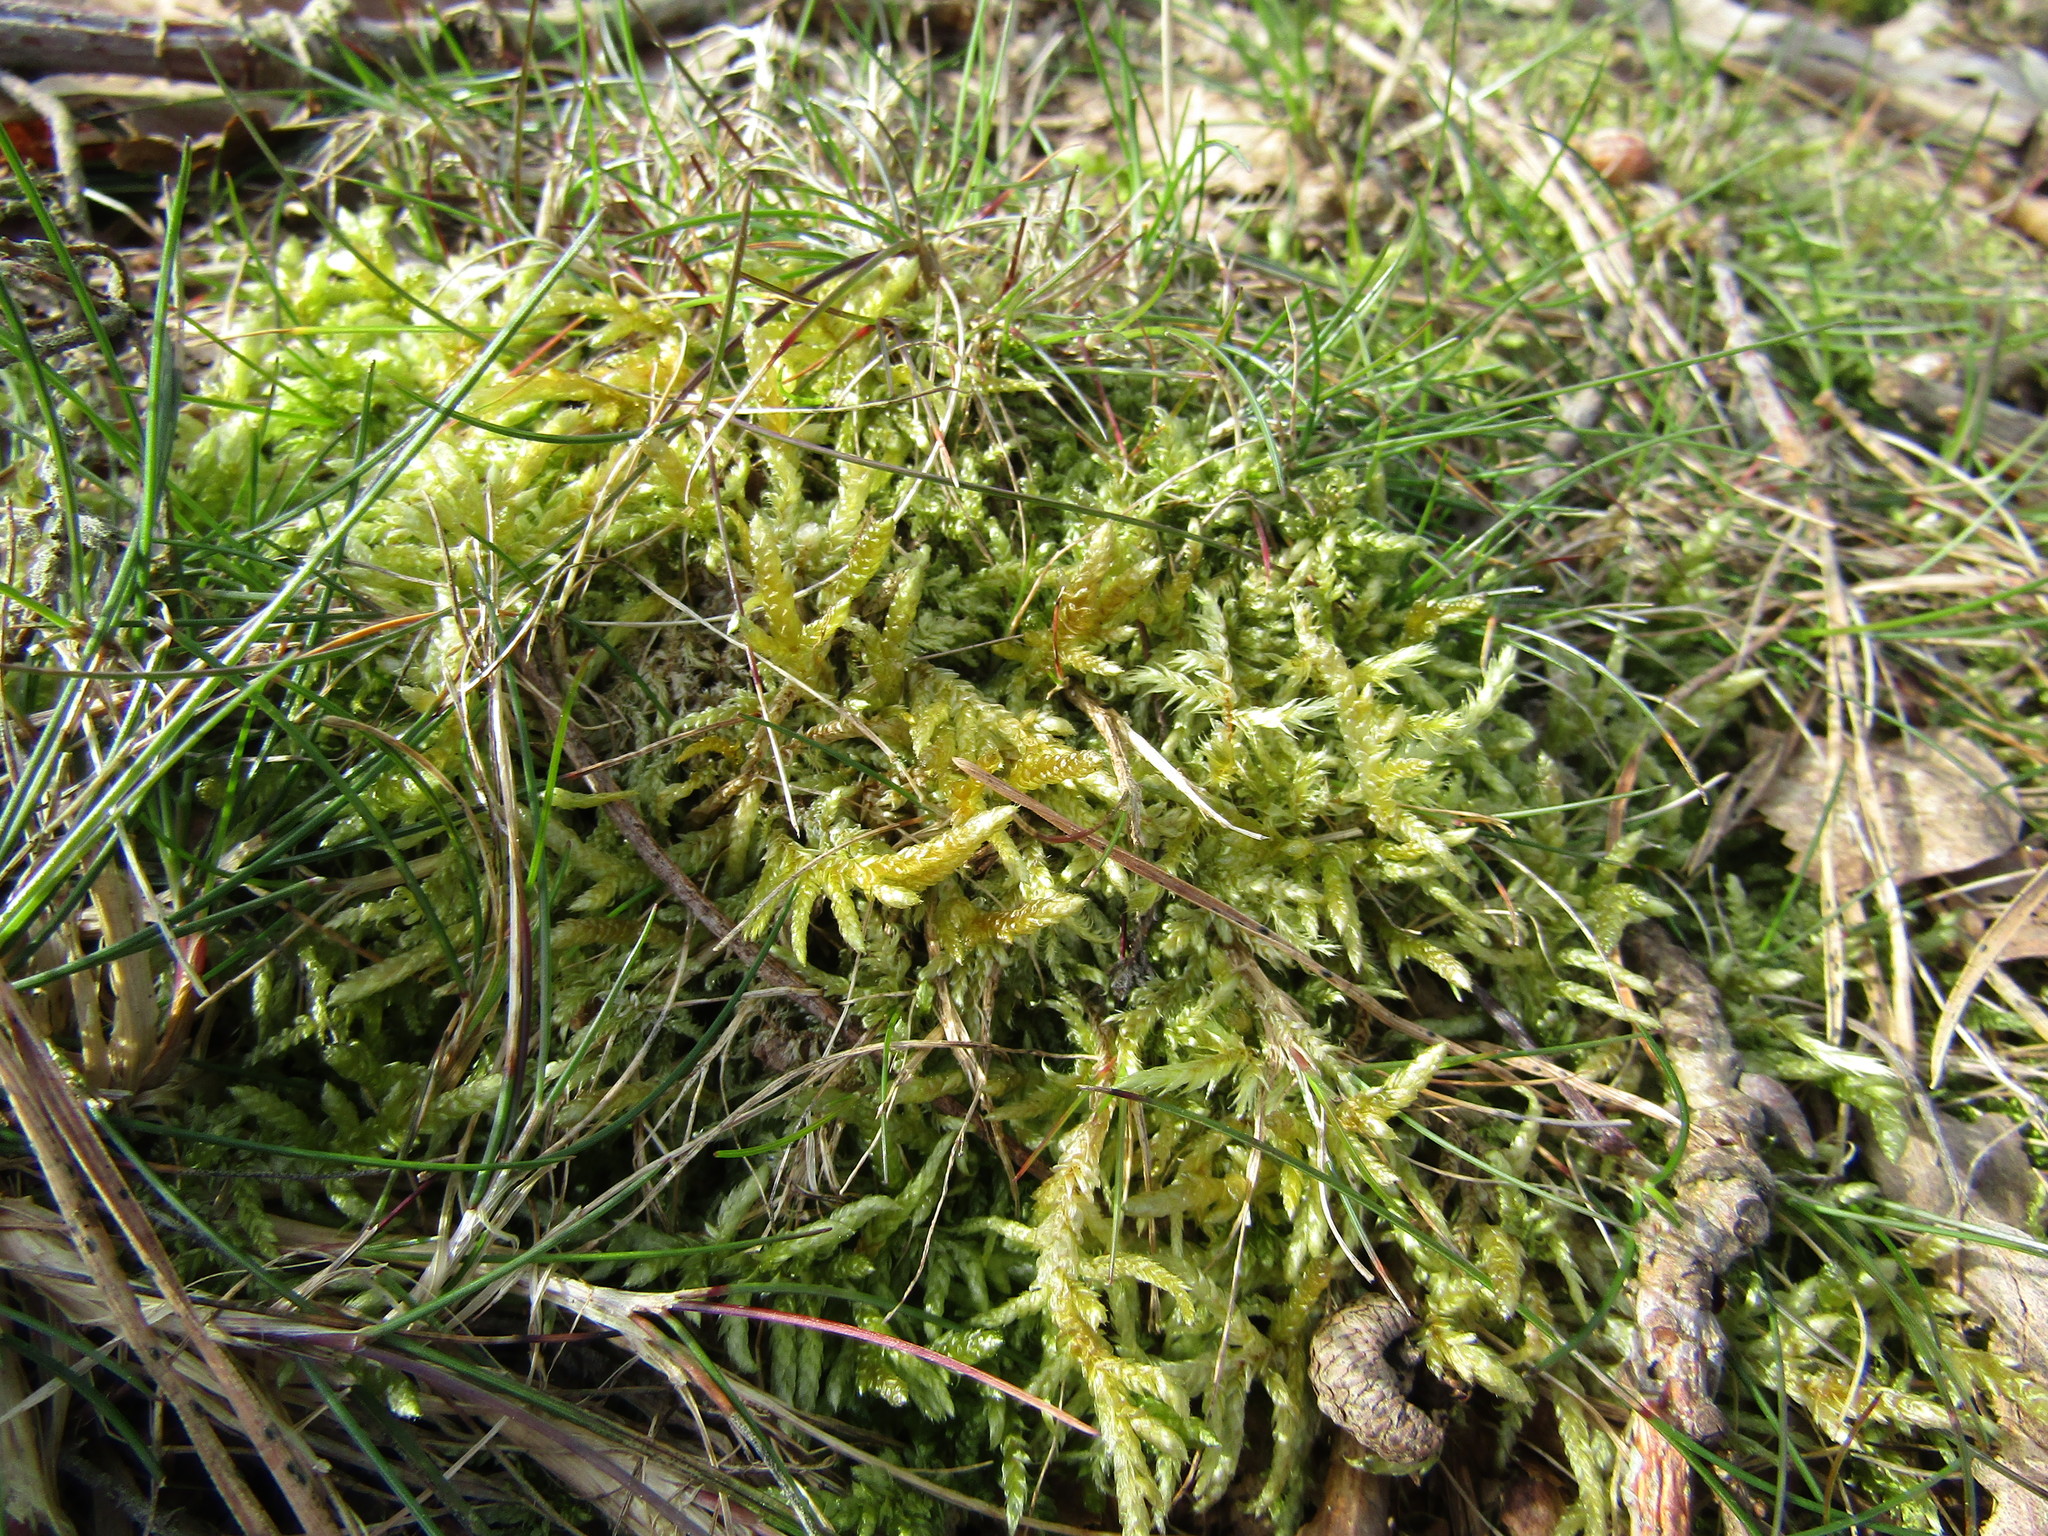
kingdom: Plantae
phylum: Bryophyta
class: Bryopsida
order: Hypnales
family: Brachytheciaceae
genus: Pseudoscleropodium
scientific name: Pseudoscleropodium purum
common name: Neat feather-moss
